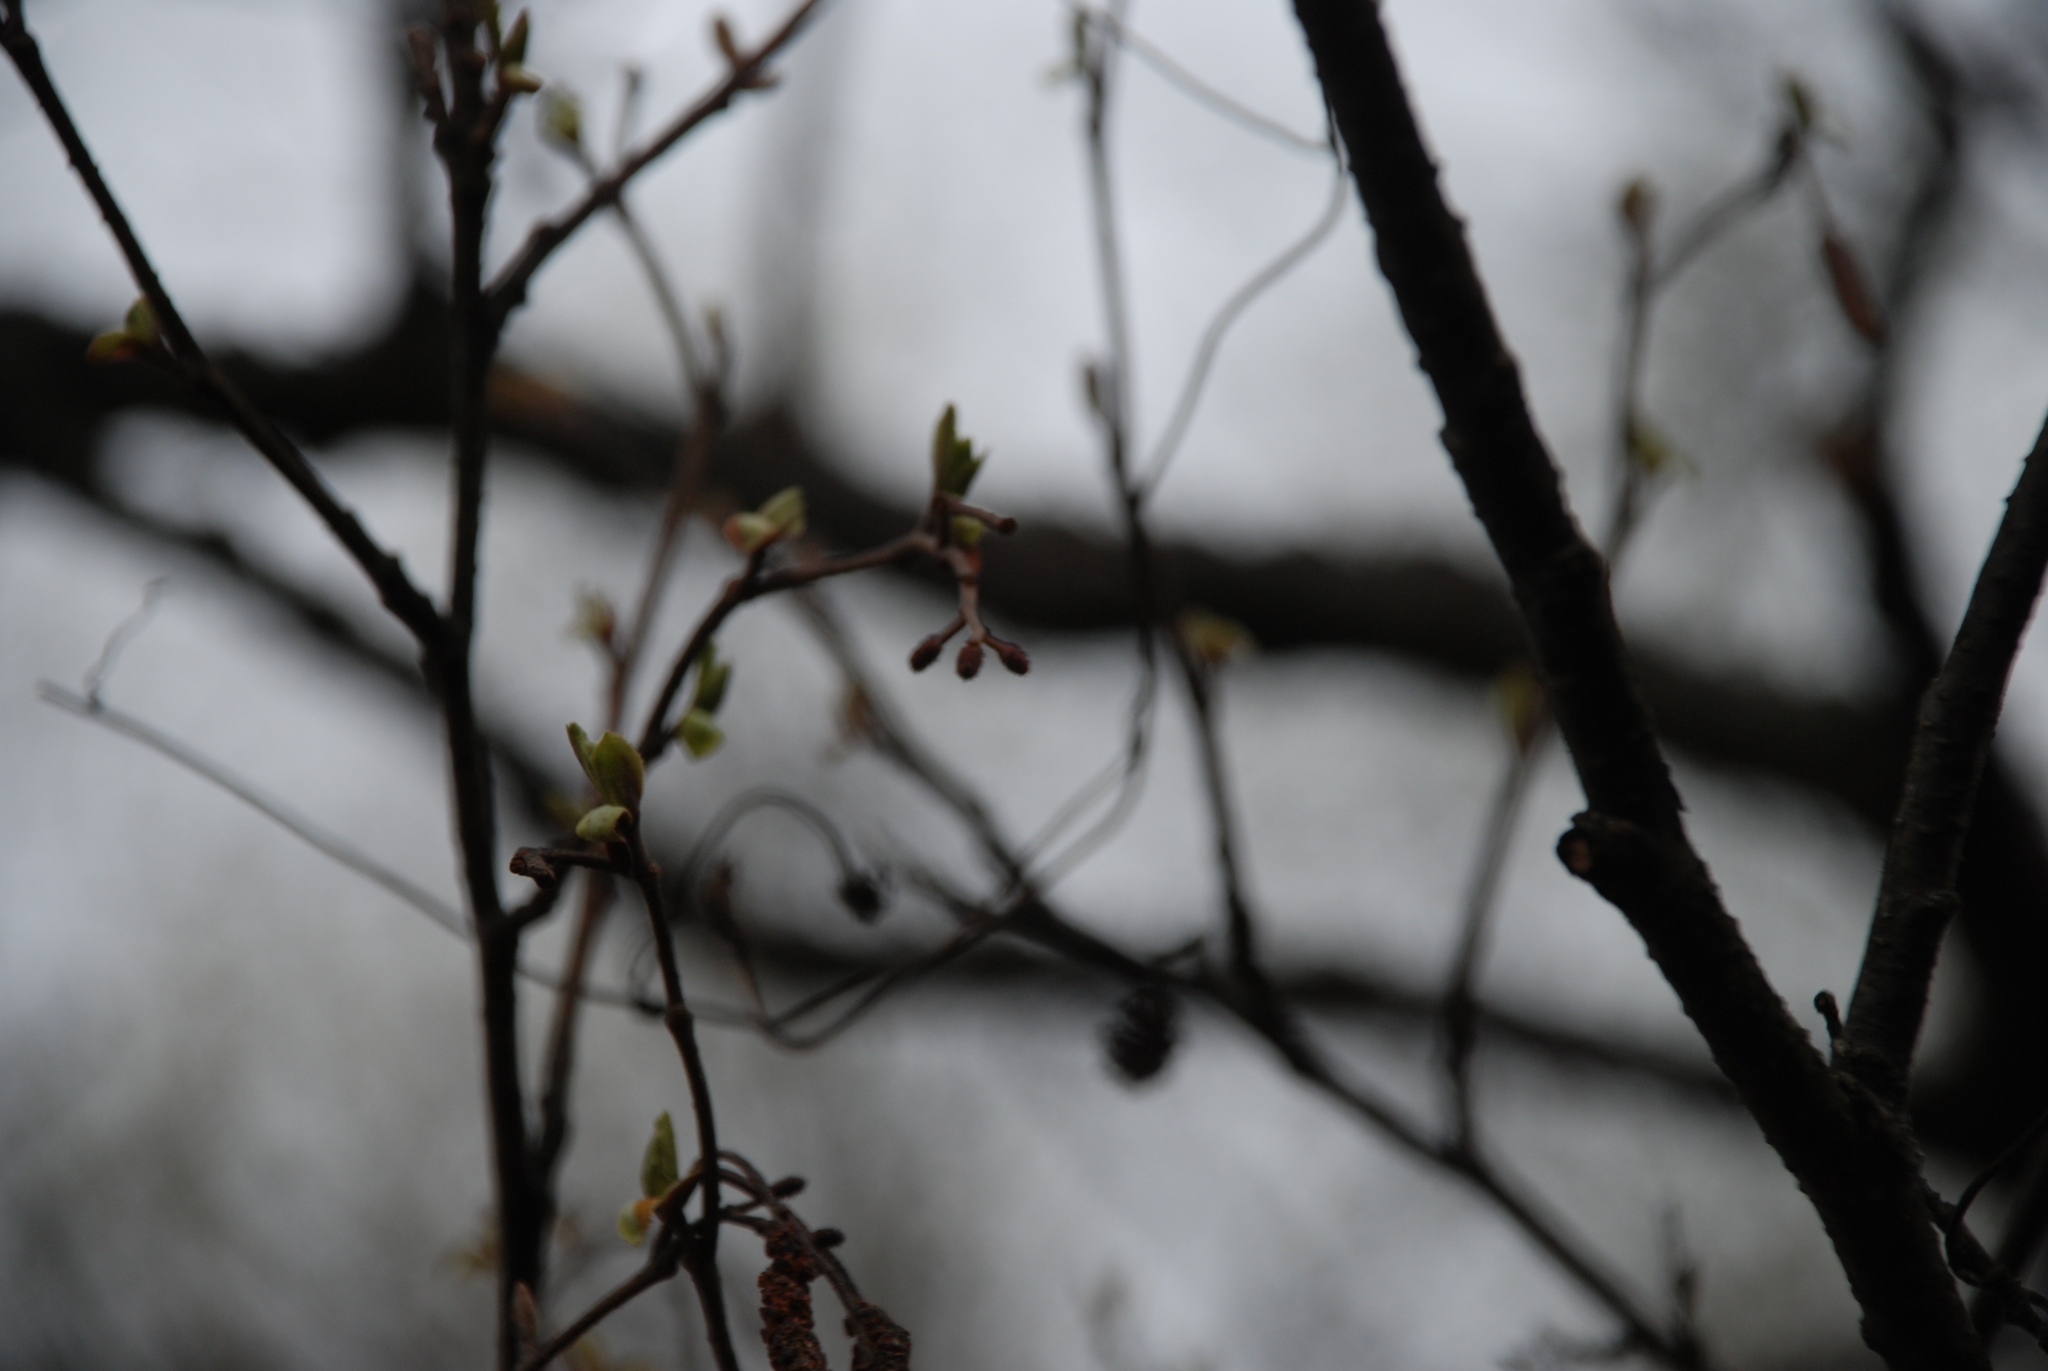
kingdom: Plantae
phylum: Tracheophyta
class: Magnoliopsida
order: Fagales
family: Betulaceae
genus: Alnus
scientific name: Alnus glutinosa
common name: Black alder
